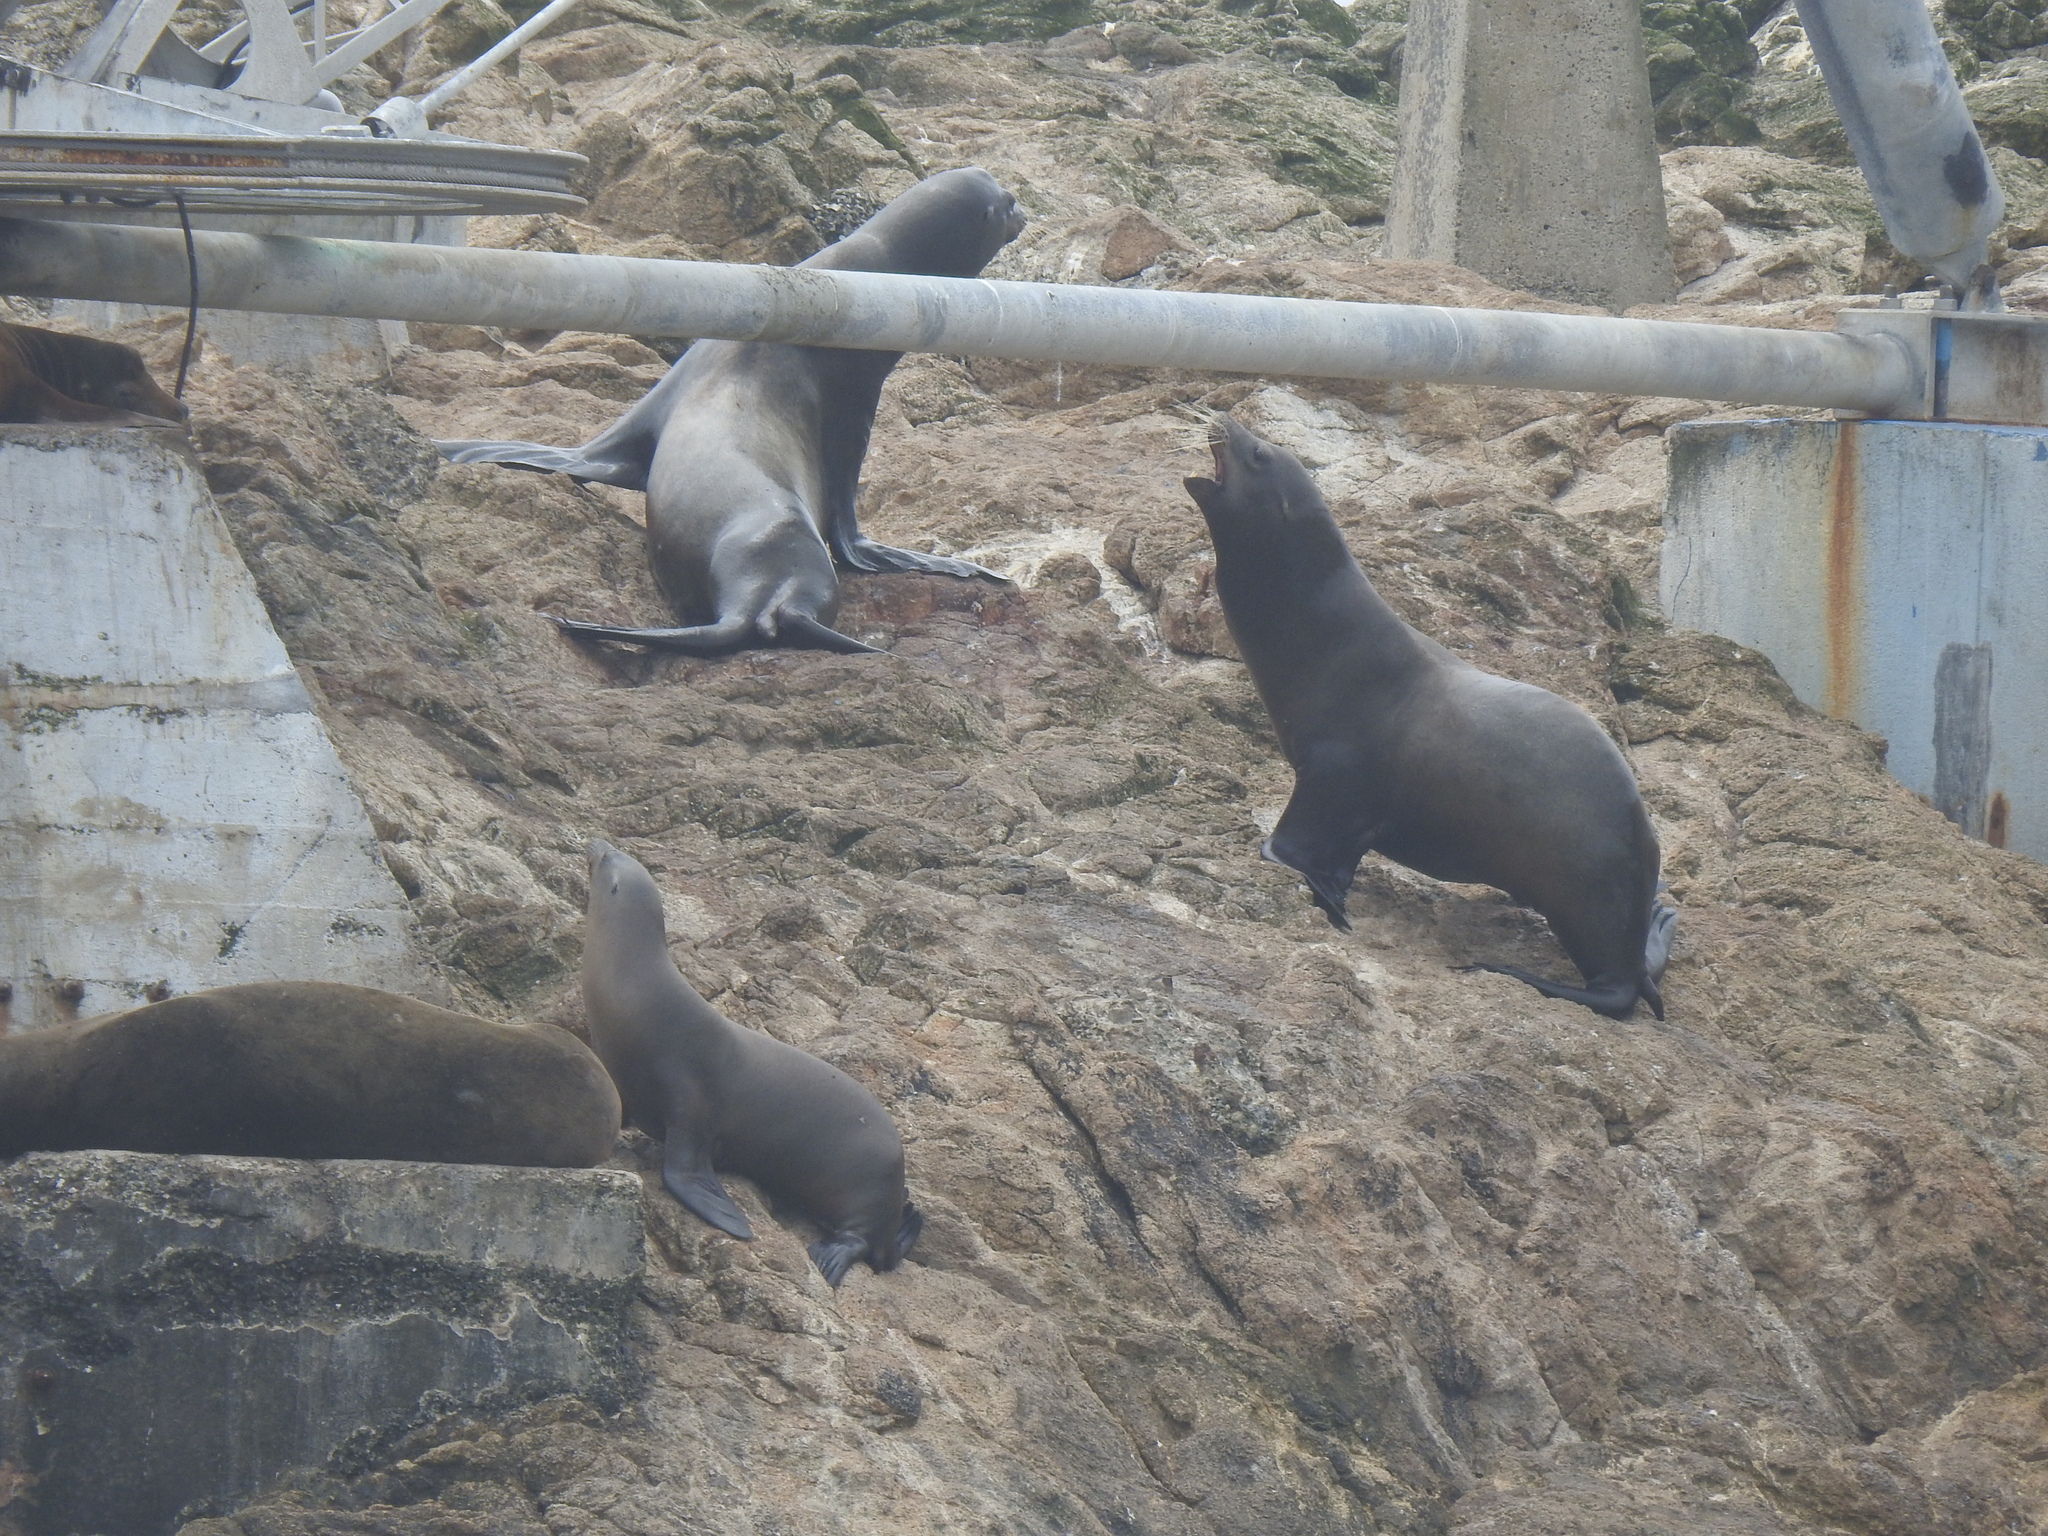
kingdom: Animalia
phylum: Chordata
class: Mammalia
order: Carnivora
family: Otariidae
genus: Zalophus
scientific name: Zalophus californianus
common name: California sea lion
